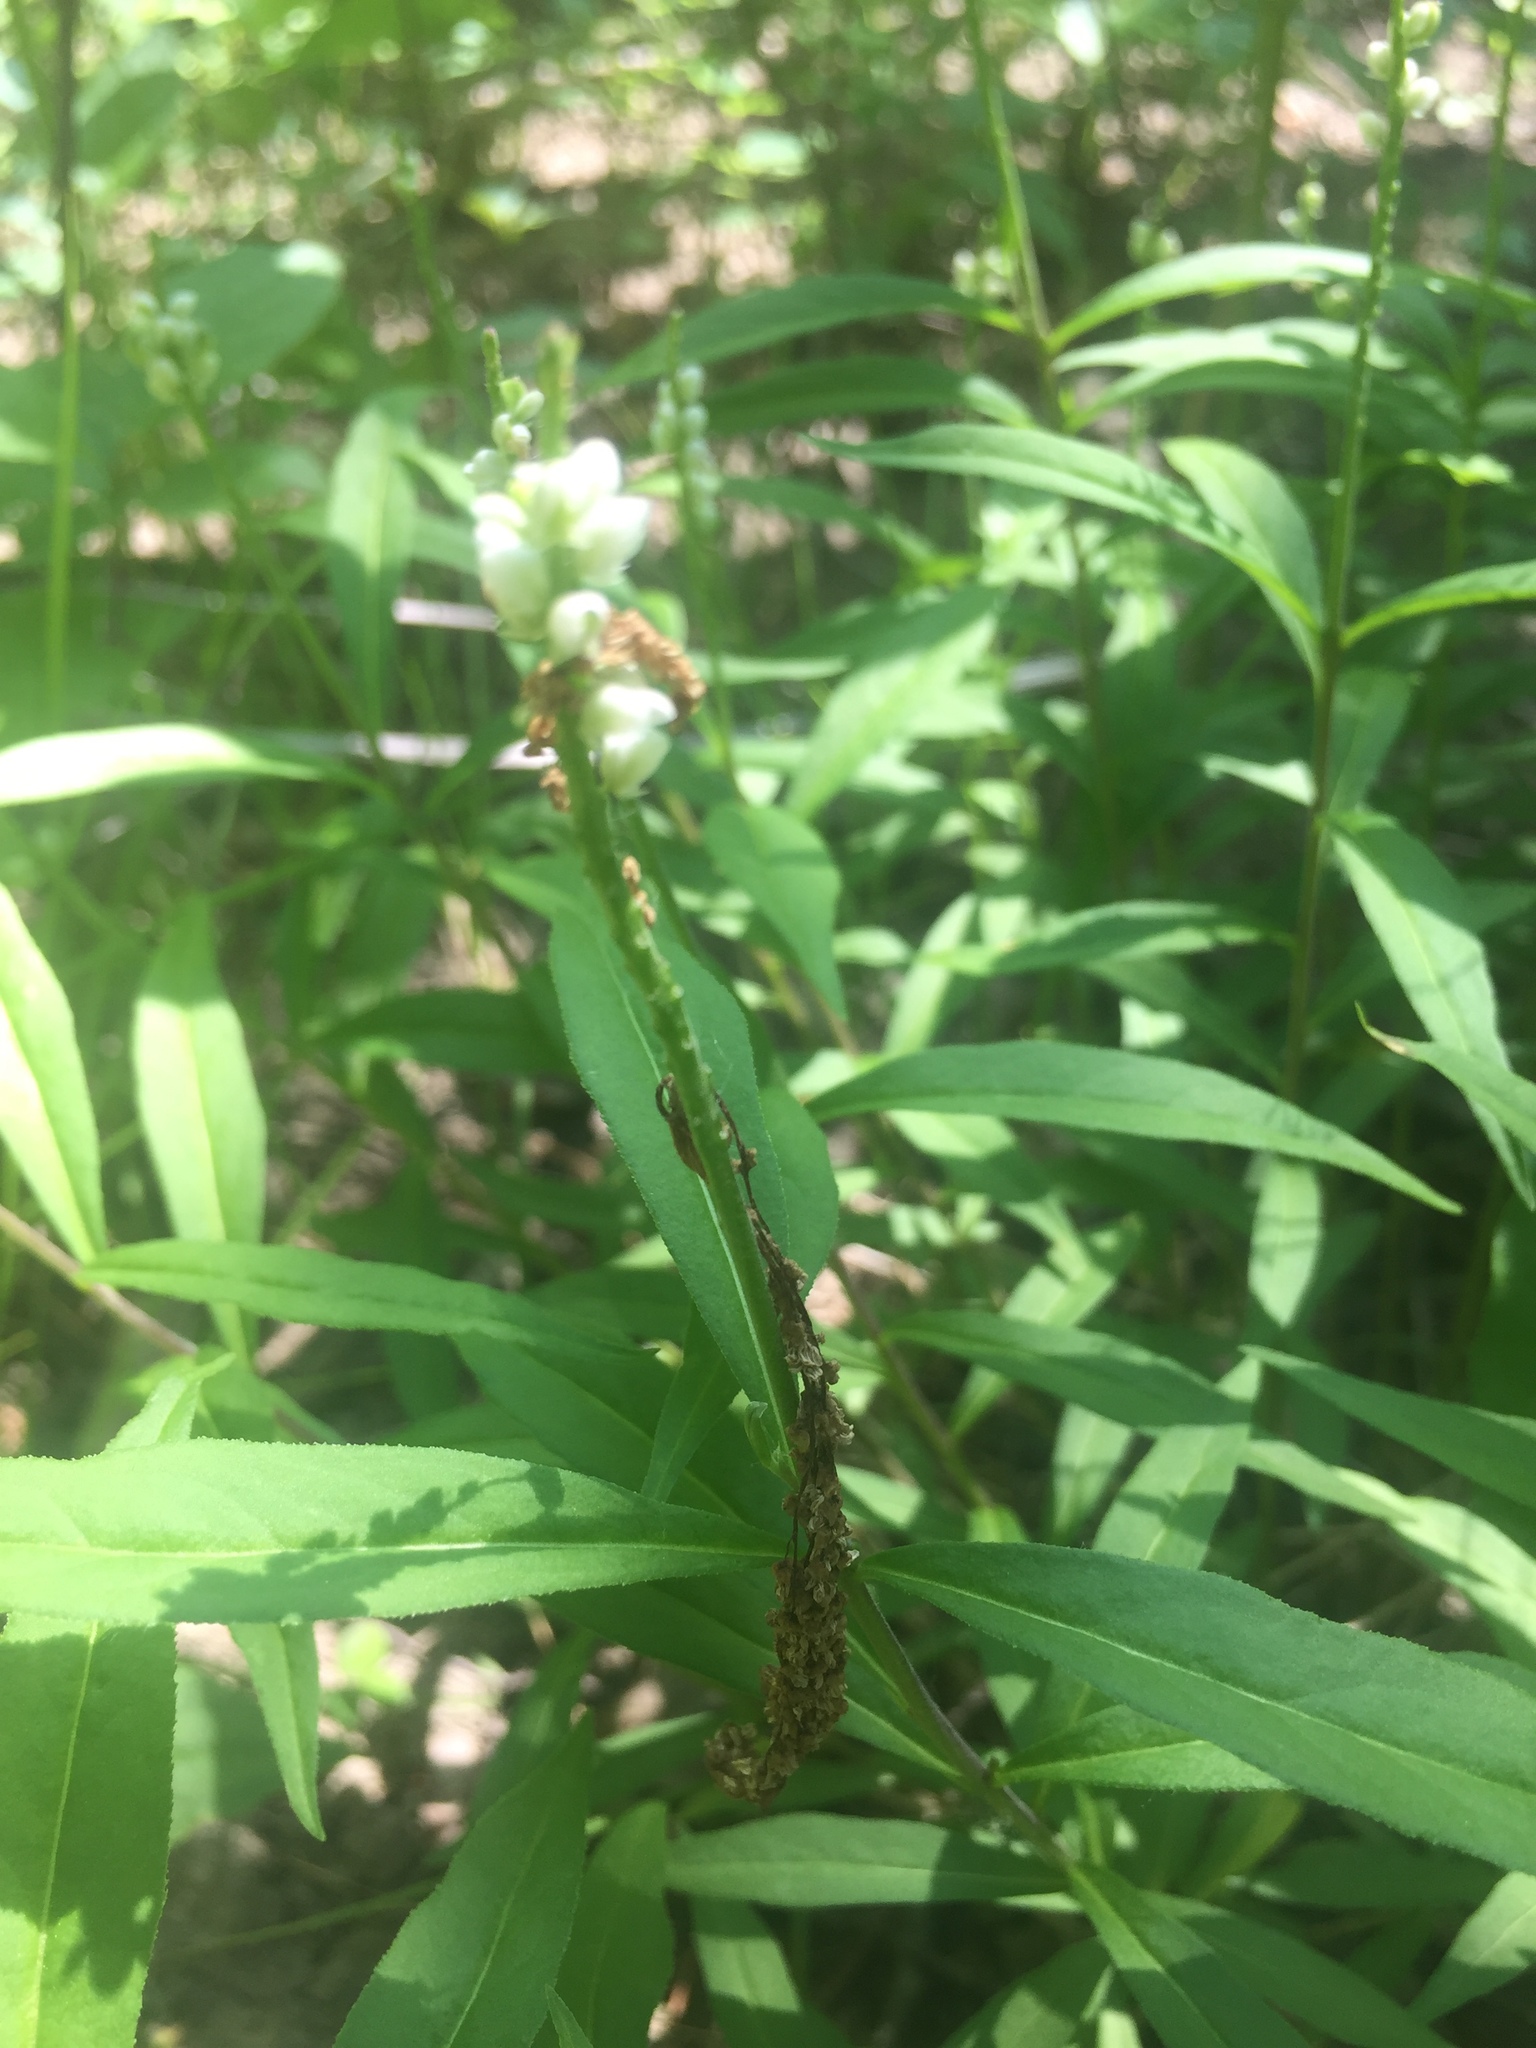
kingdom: Plantae
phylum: Tracheophyta
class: Magnoliopsida
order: Fabales
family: Polygalaceae
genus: Polygala
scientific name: Polygala senega
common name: Seneca snakeroot
